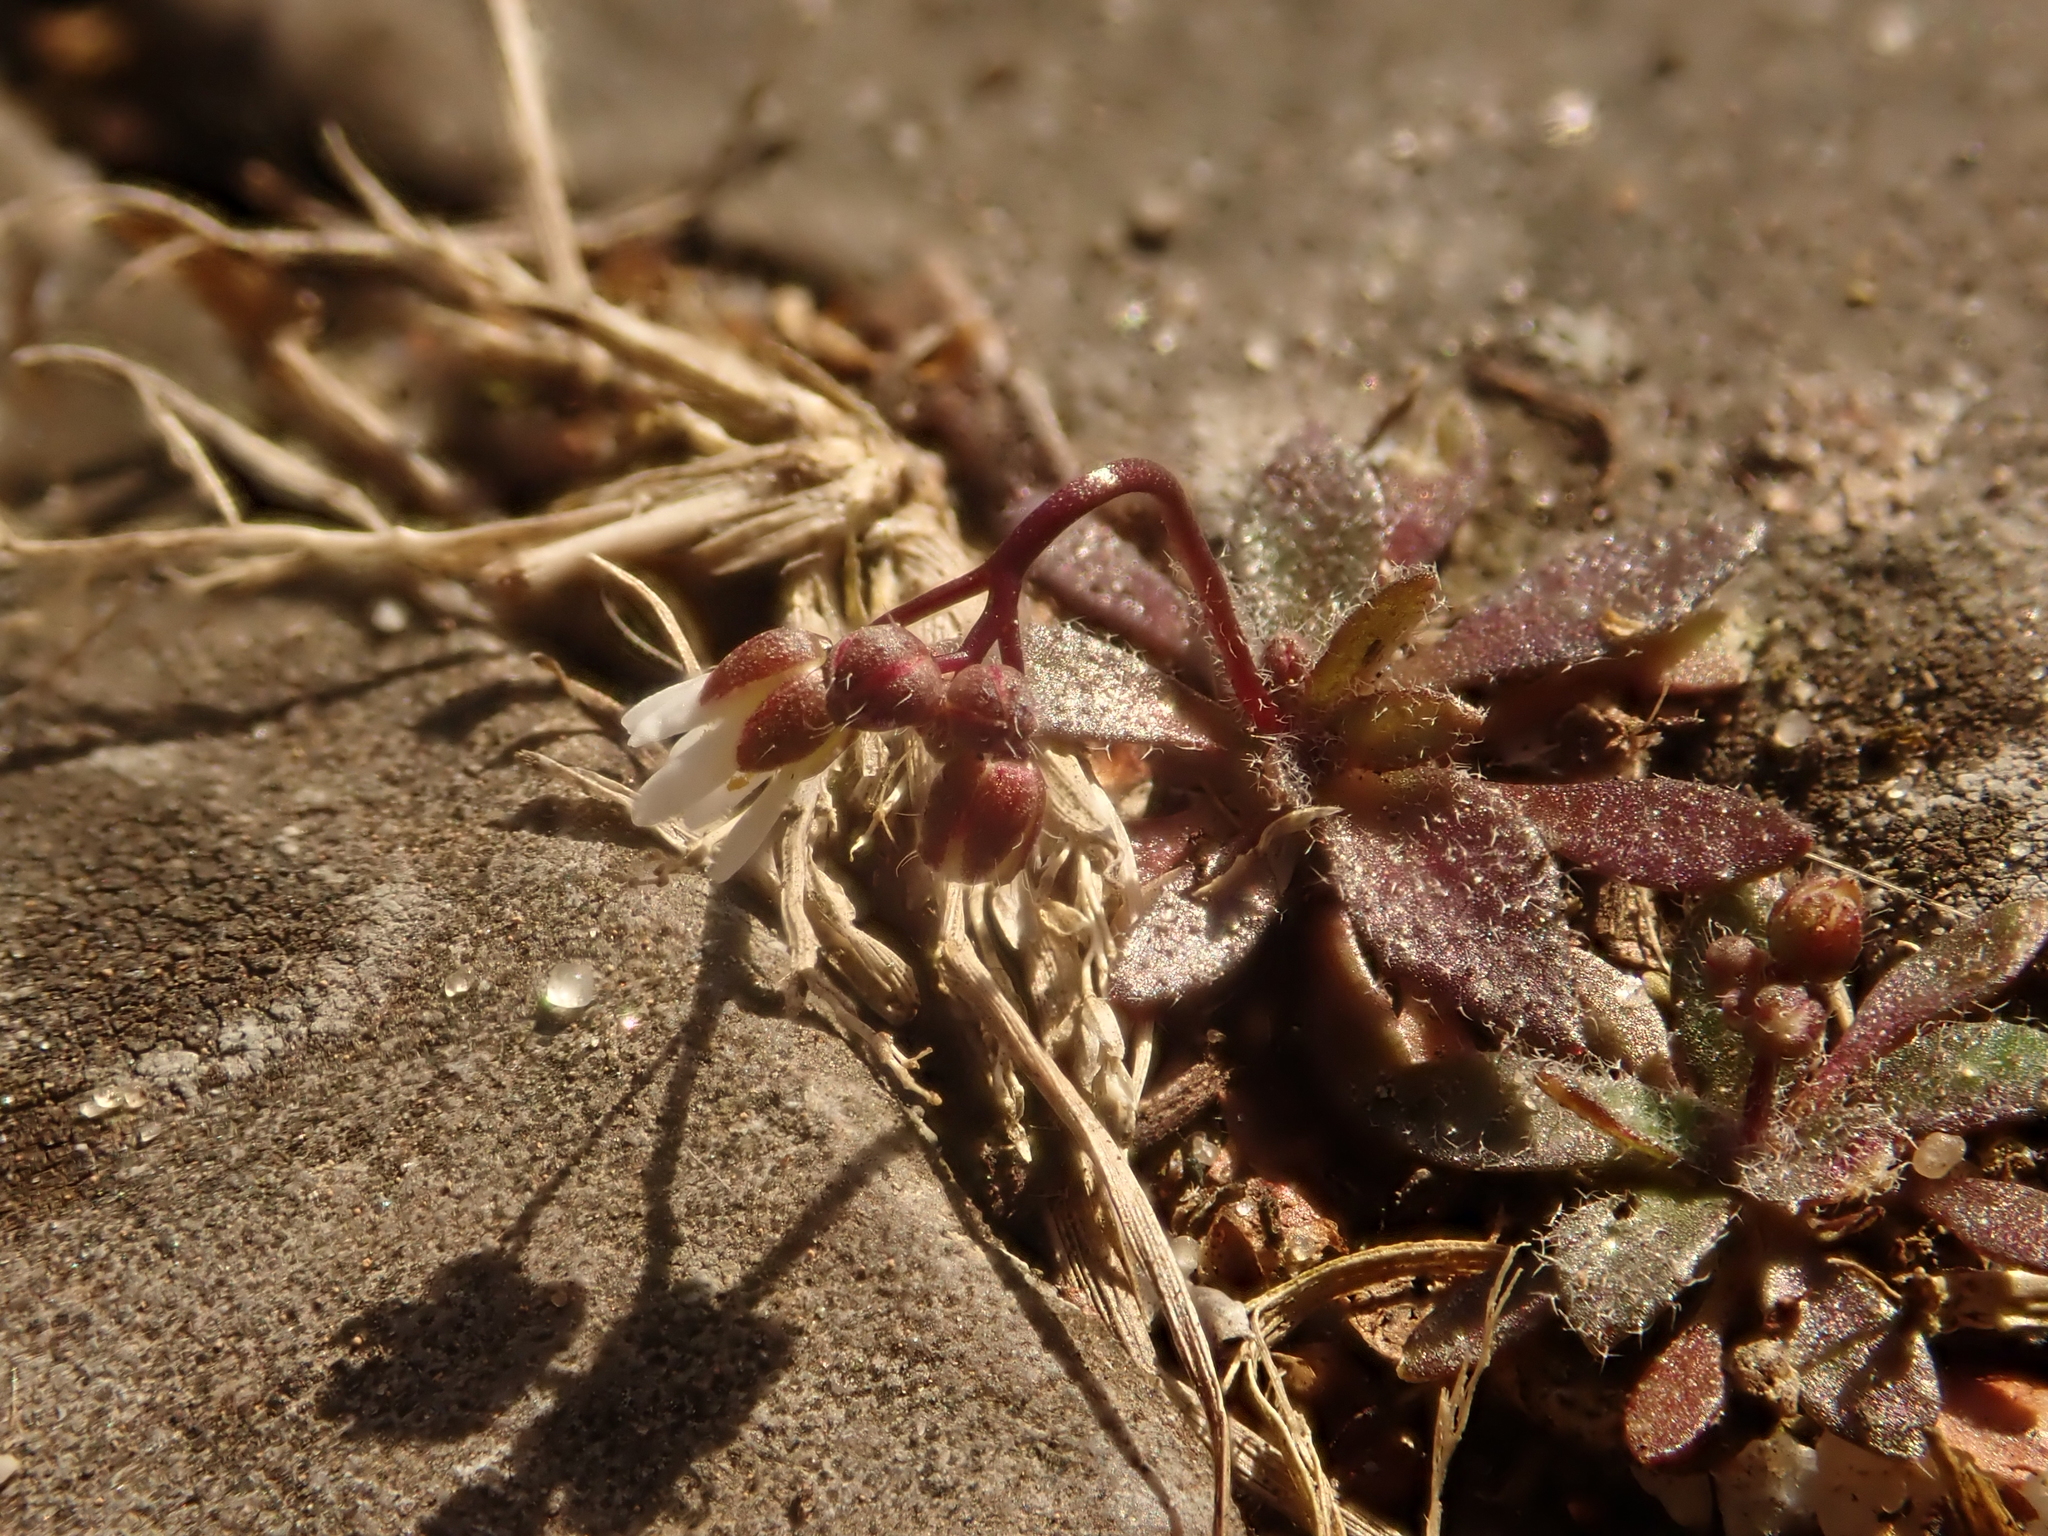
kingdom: Plantae
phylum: Tracheophyta
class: Magnoliopsida
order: Brassicales
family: Brassicaceae
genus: Draba
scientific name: Draba verna
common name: Spring draba
